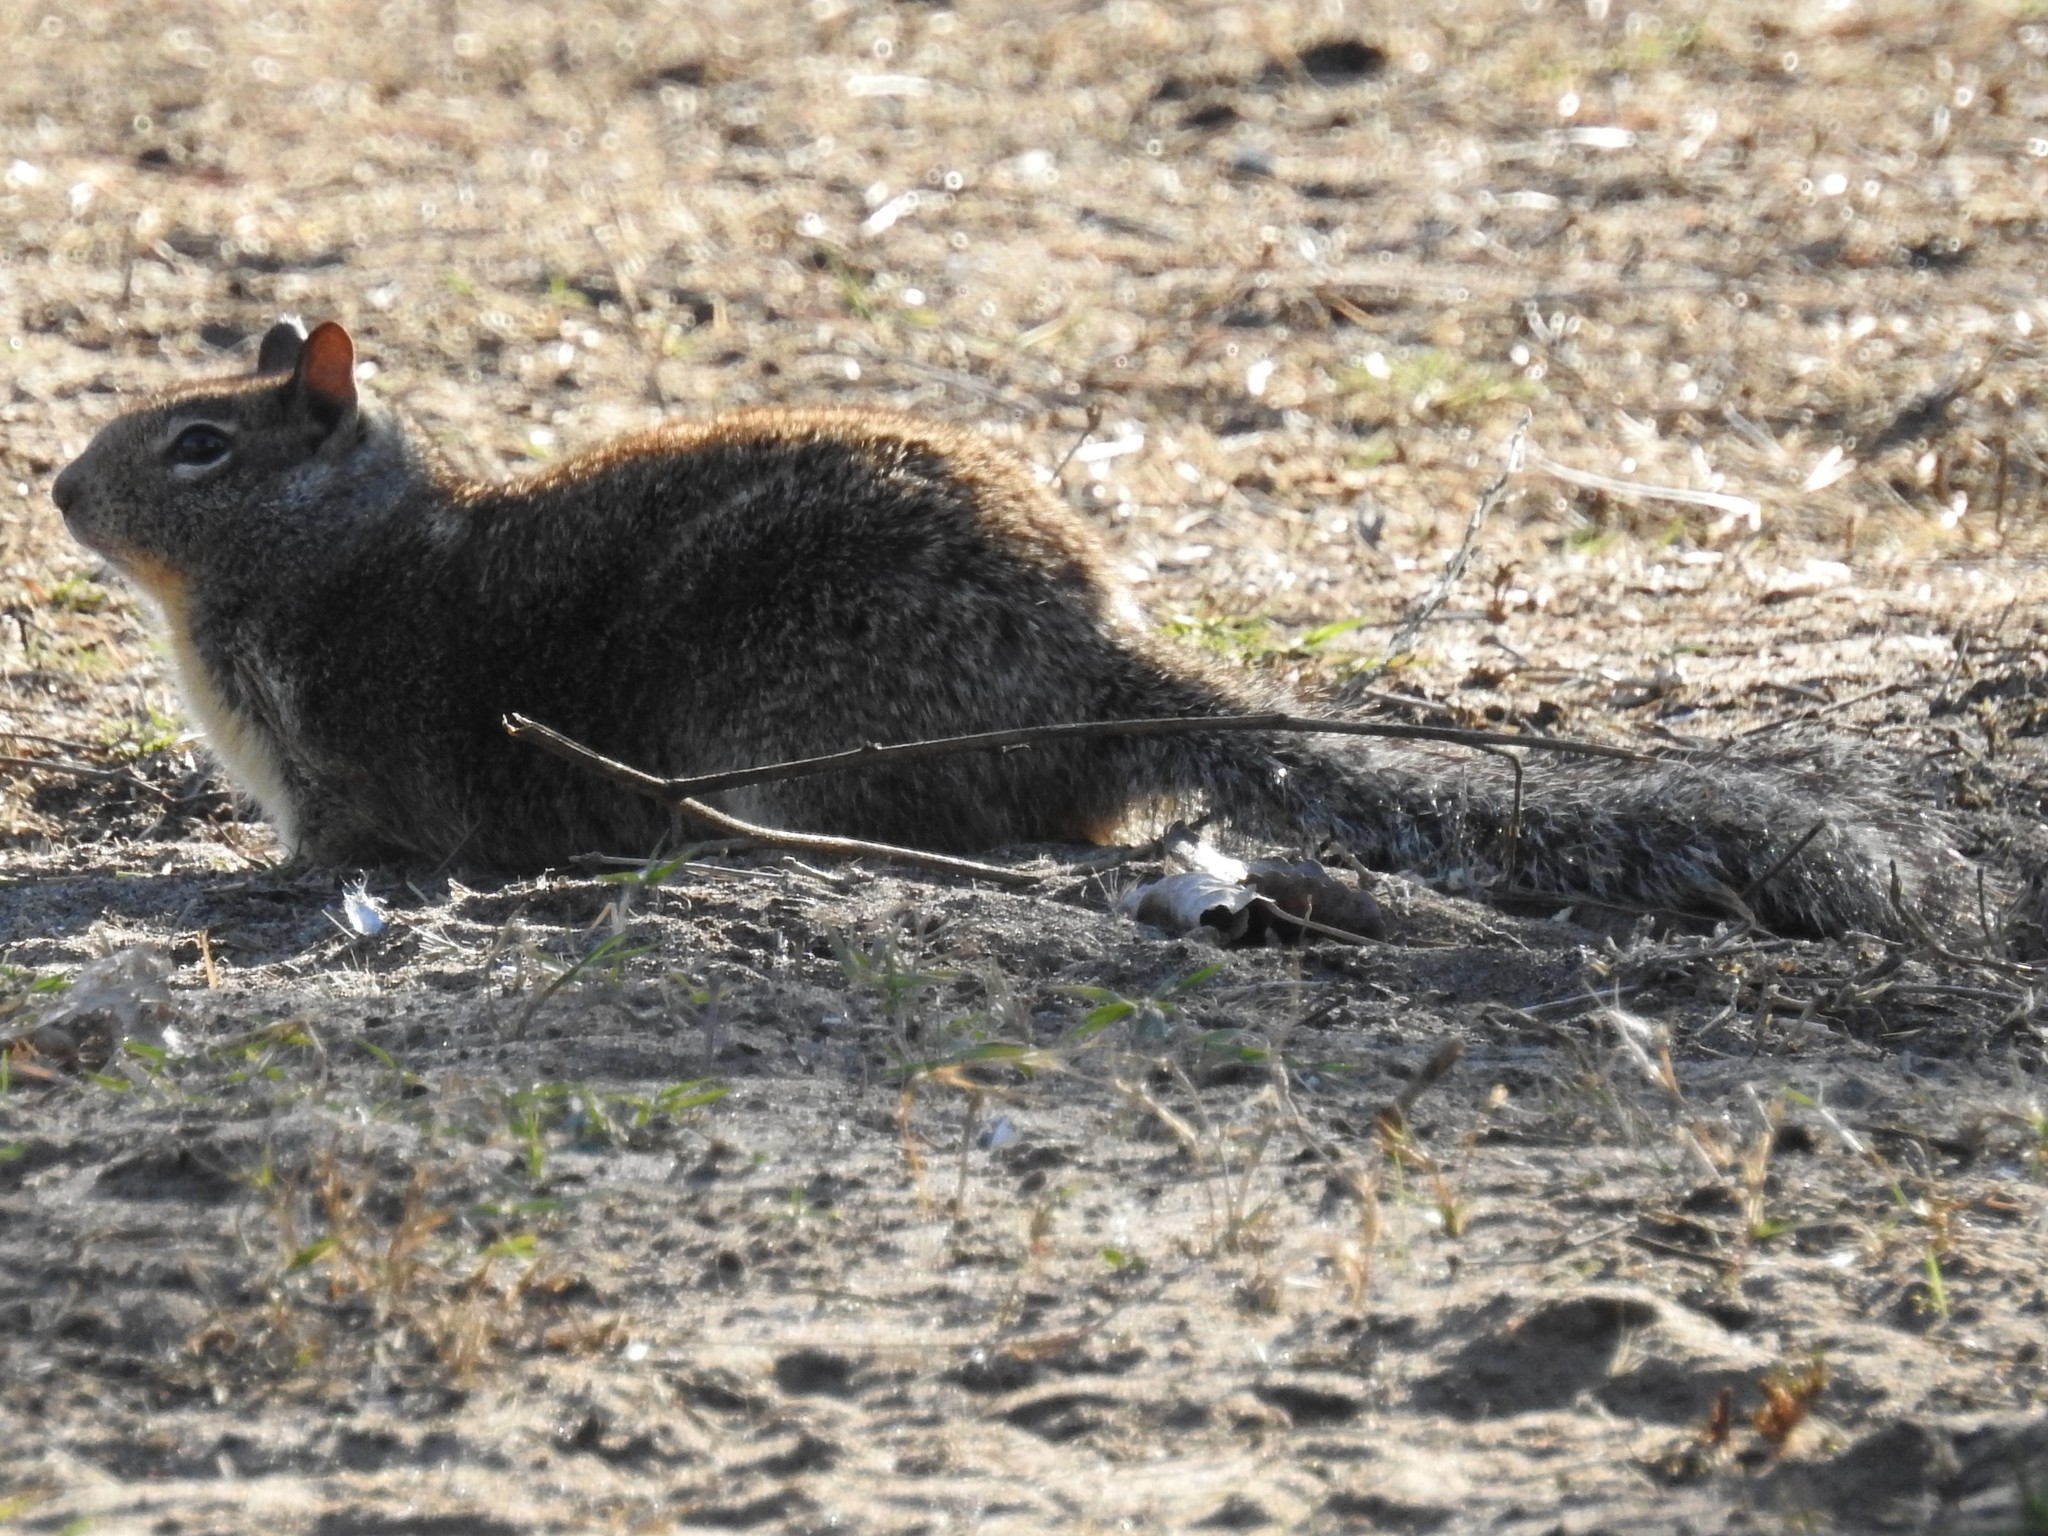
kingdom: Animalia
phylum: Chordata
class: Mammalia
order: Rodentia
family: Sciuridae
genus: Otospermophilus
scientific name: Otospermophilus beecheyi
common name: California ground squirrel
